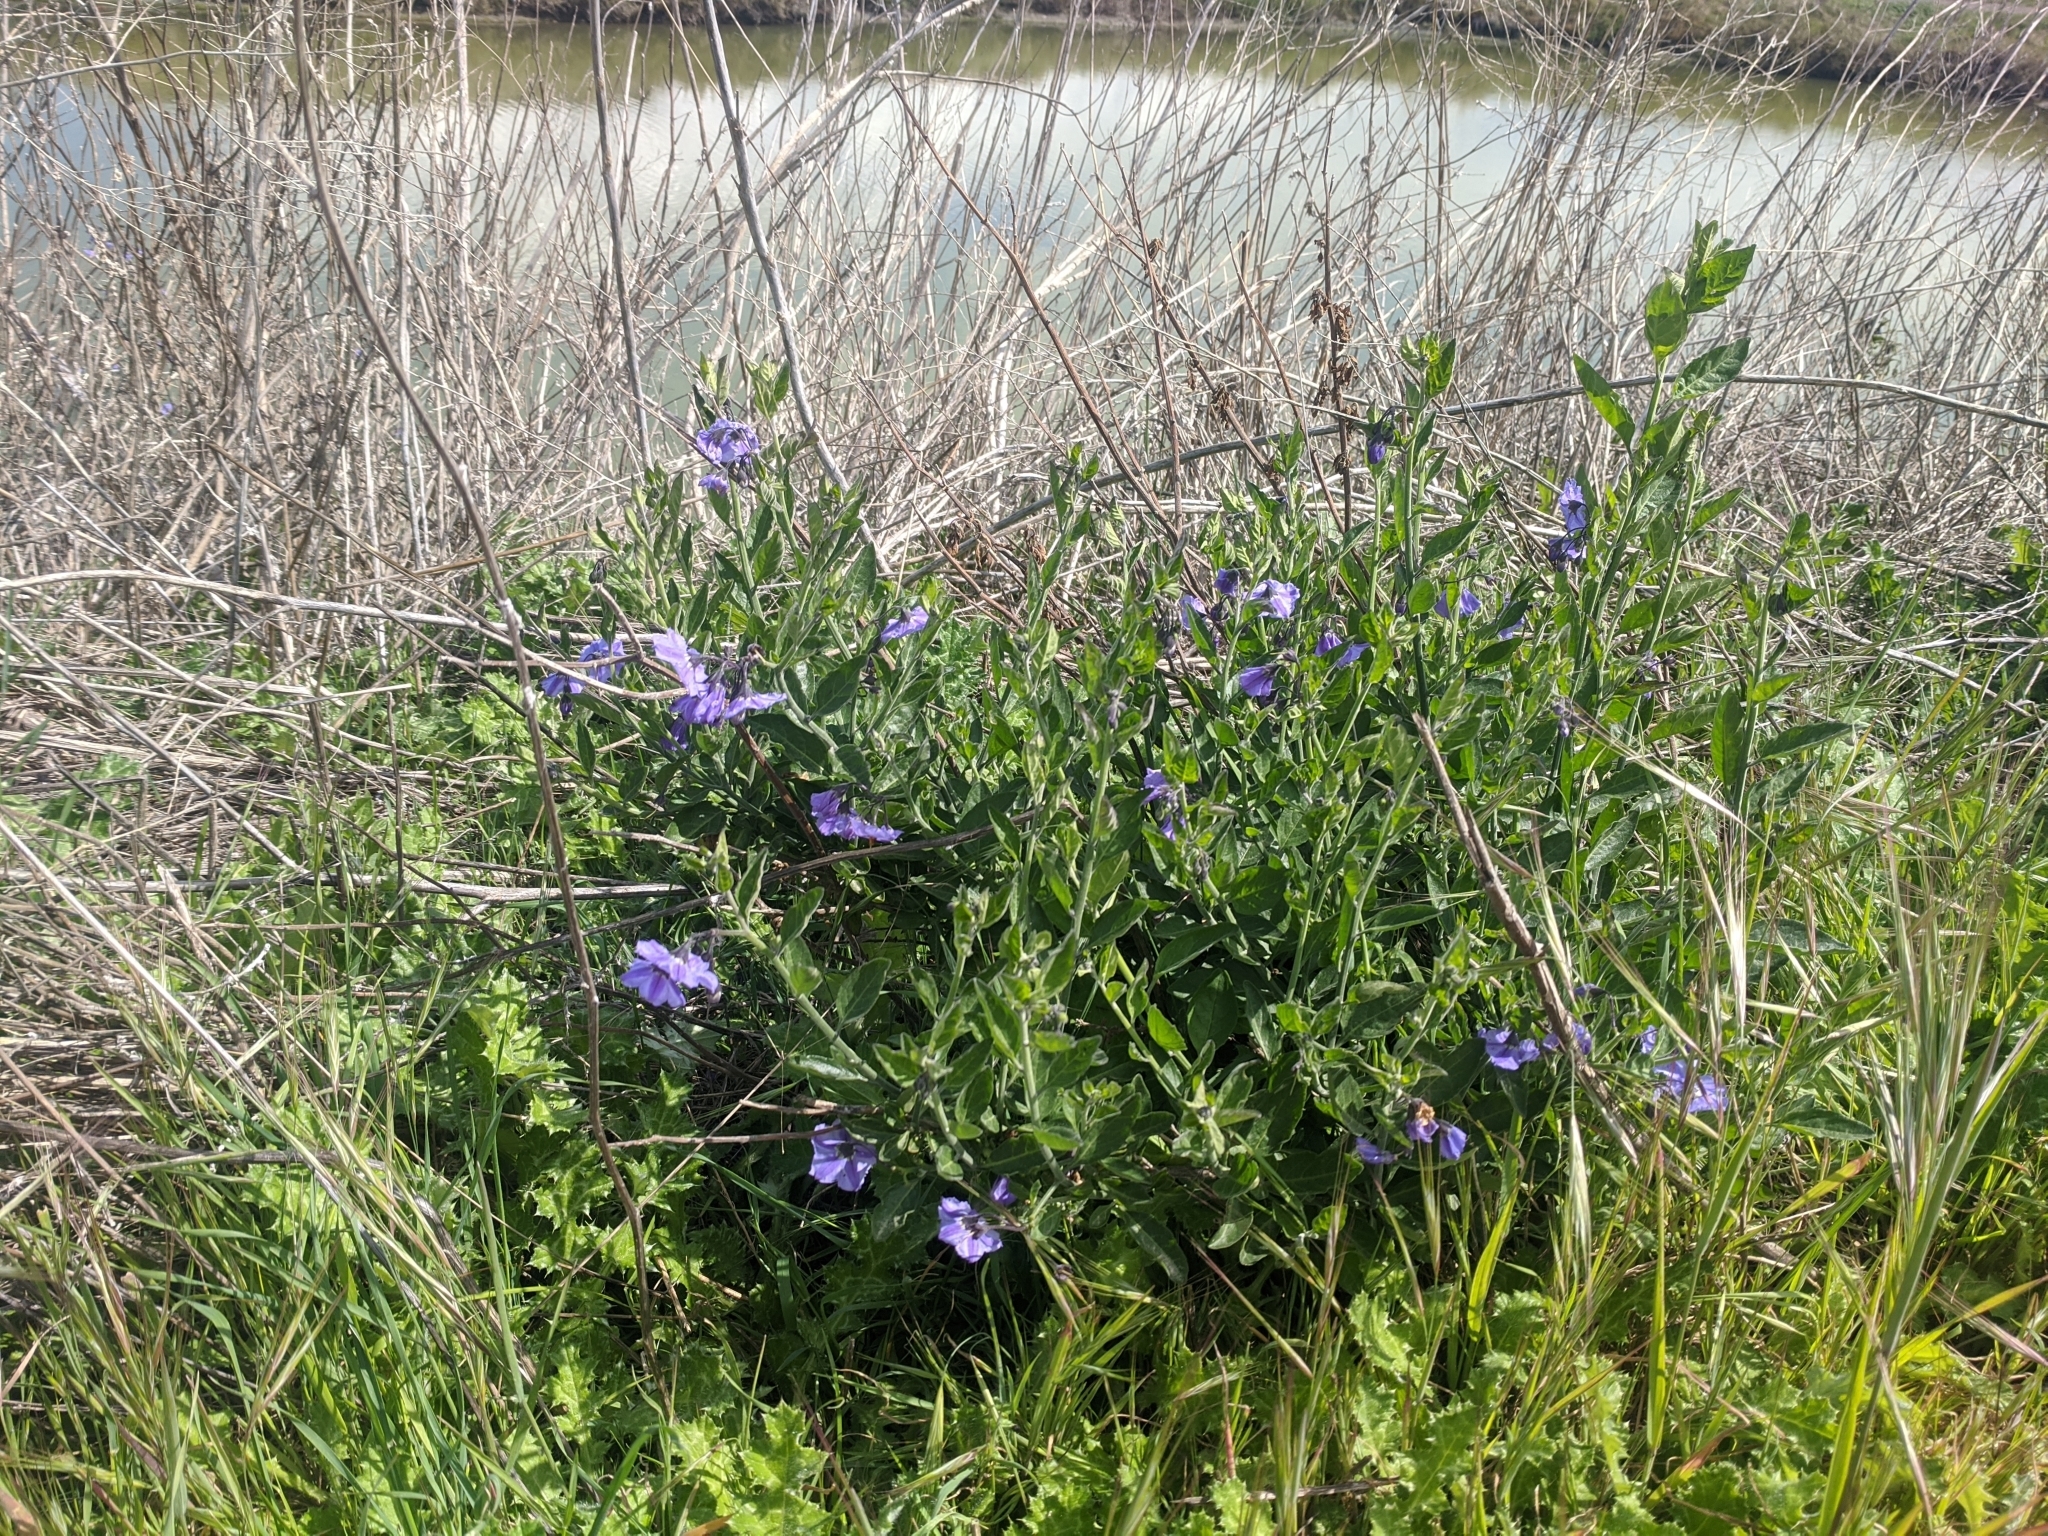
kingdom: Plantae
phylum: Tracheophyta
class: Magnoliopsida
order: Solanales
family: Solanaceae
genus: Solanum
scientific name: Solanum umbelliferum
